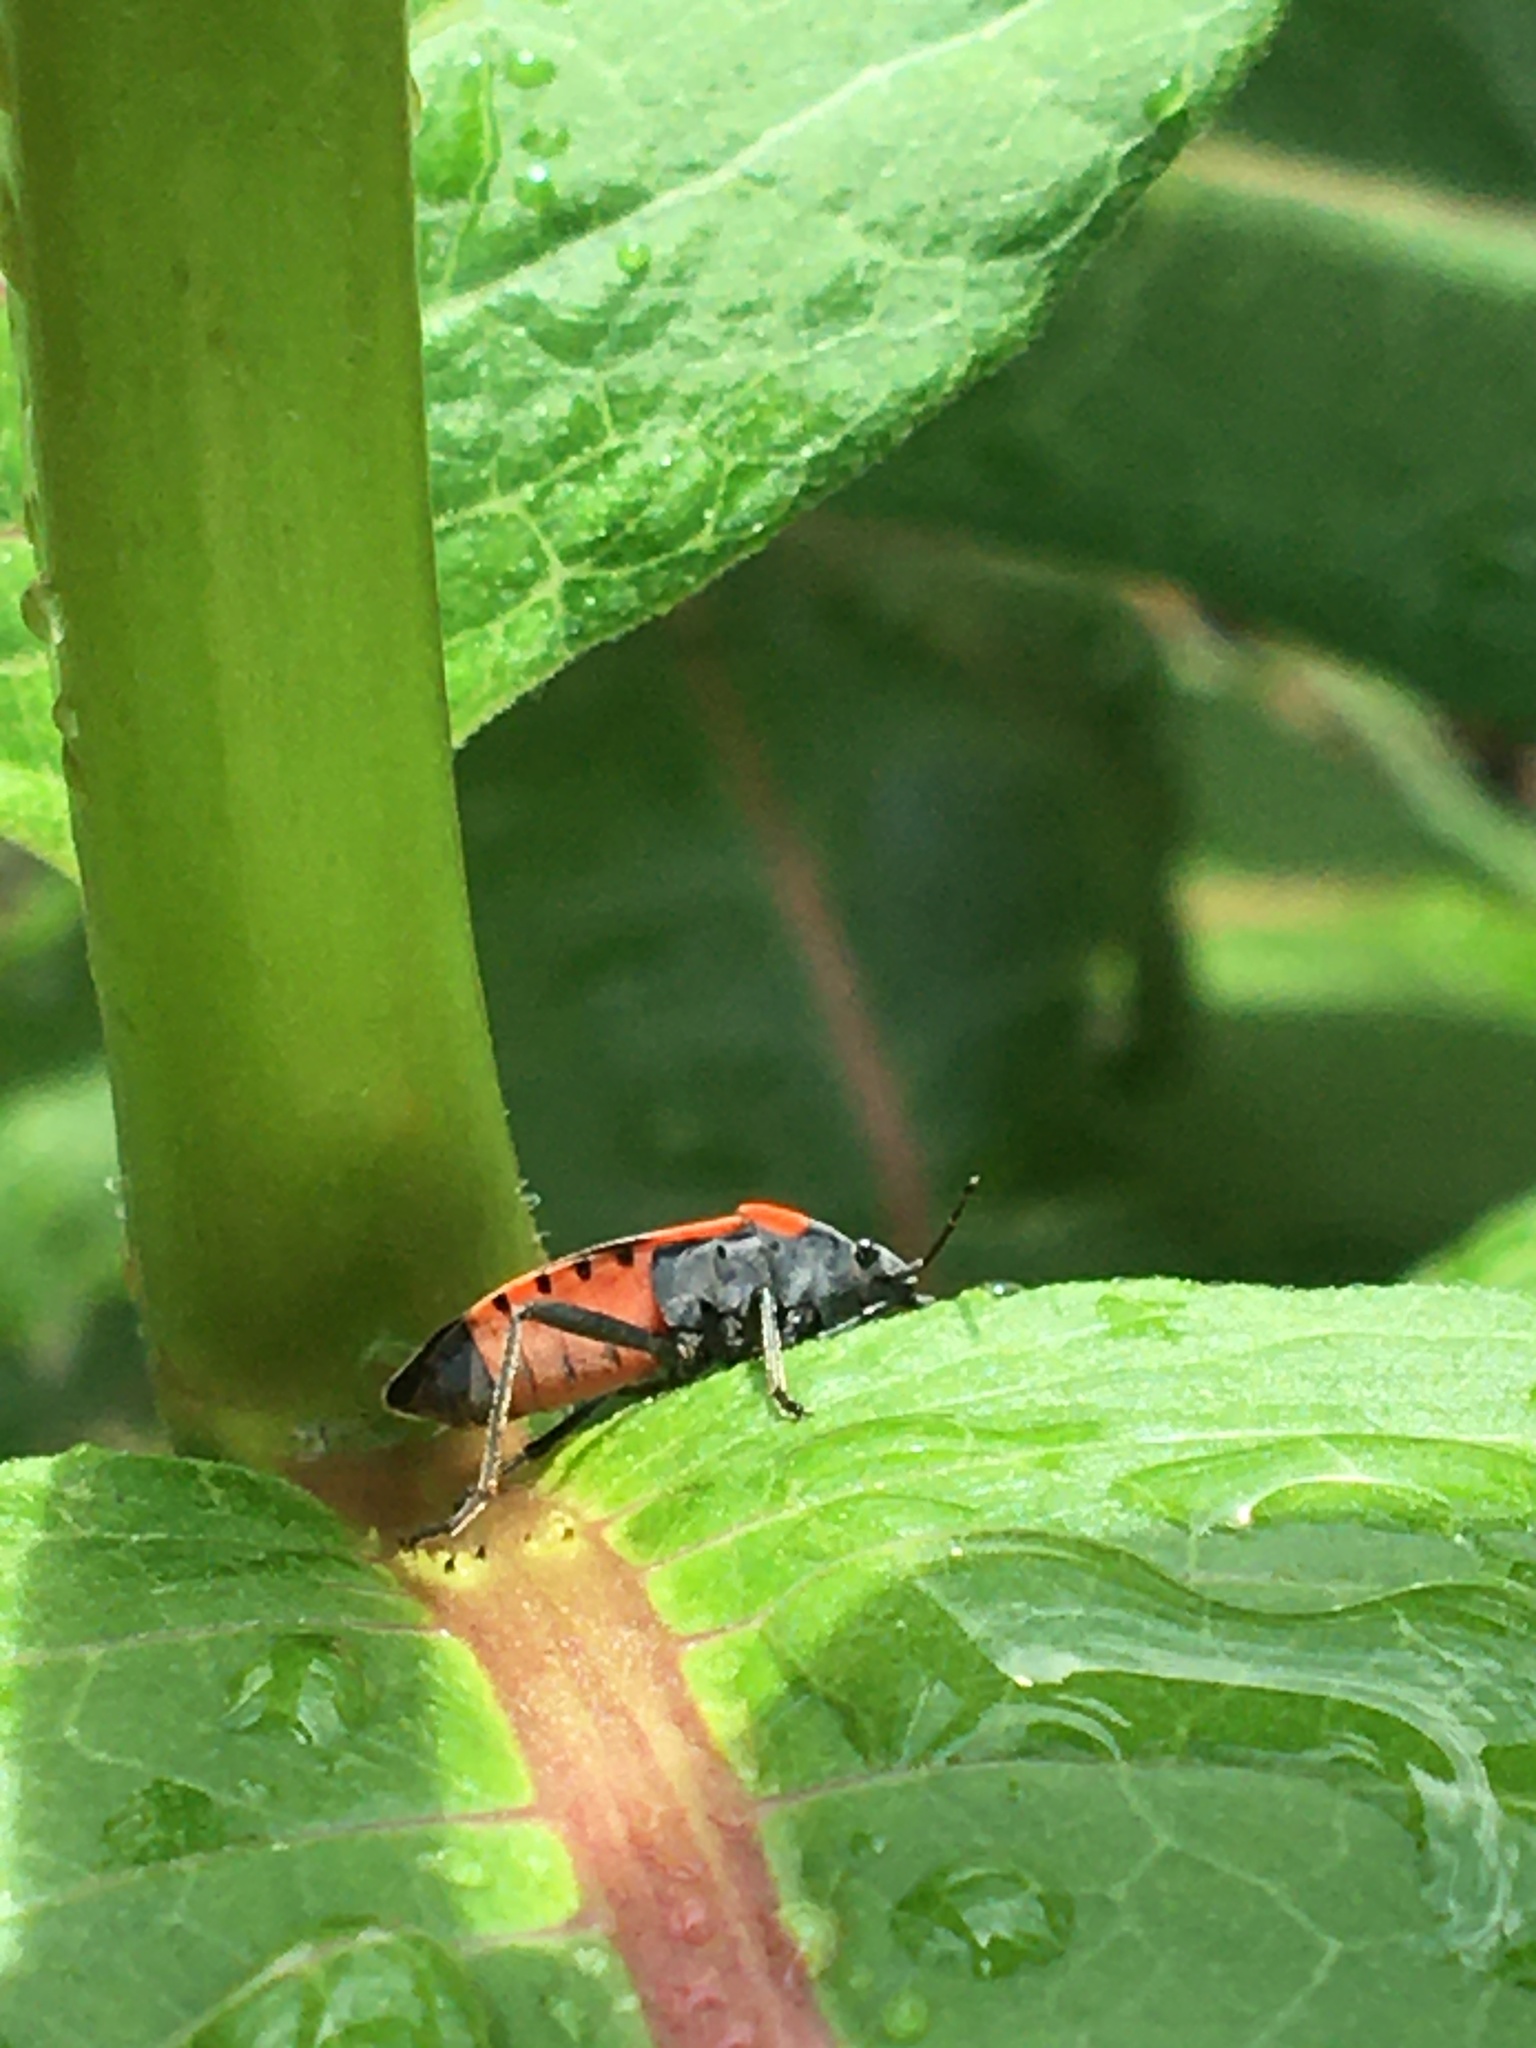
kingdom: Animalia
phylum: Arthropoda
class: Insecta
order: Hemiptera
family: Lygaeidae
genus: Lygaeus
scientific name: Lygaeus kalmii
